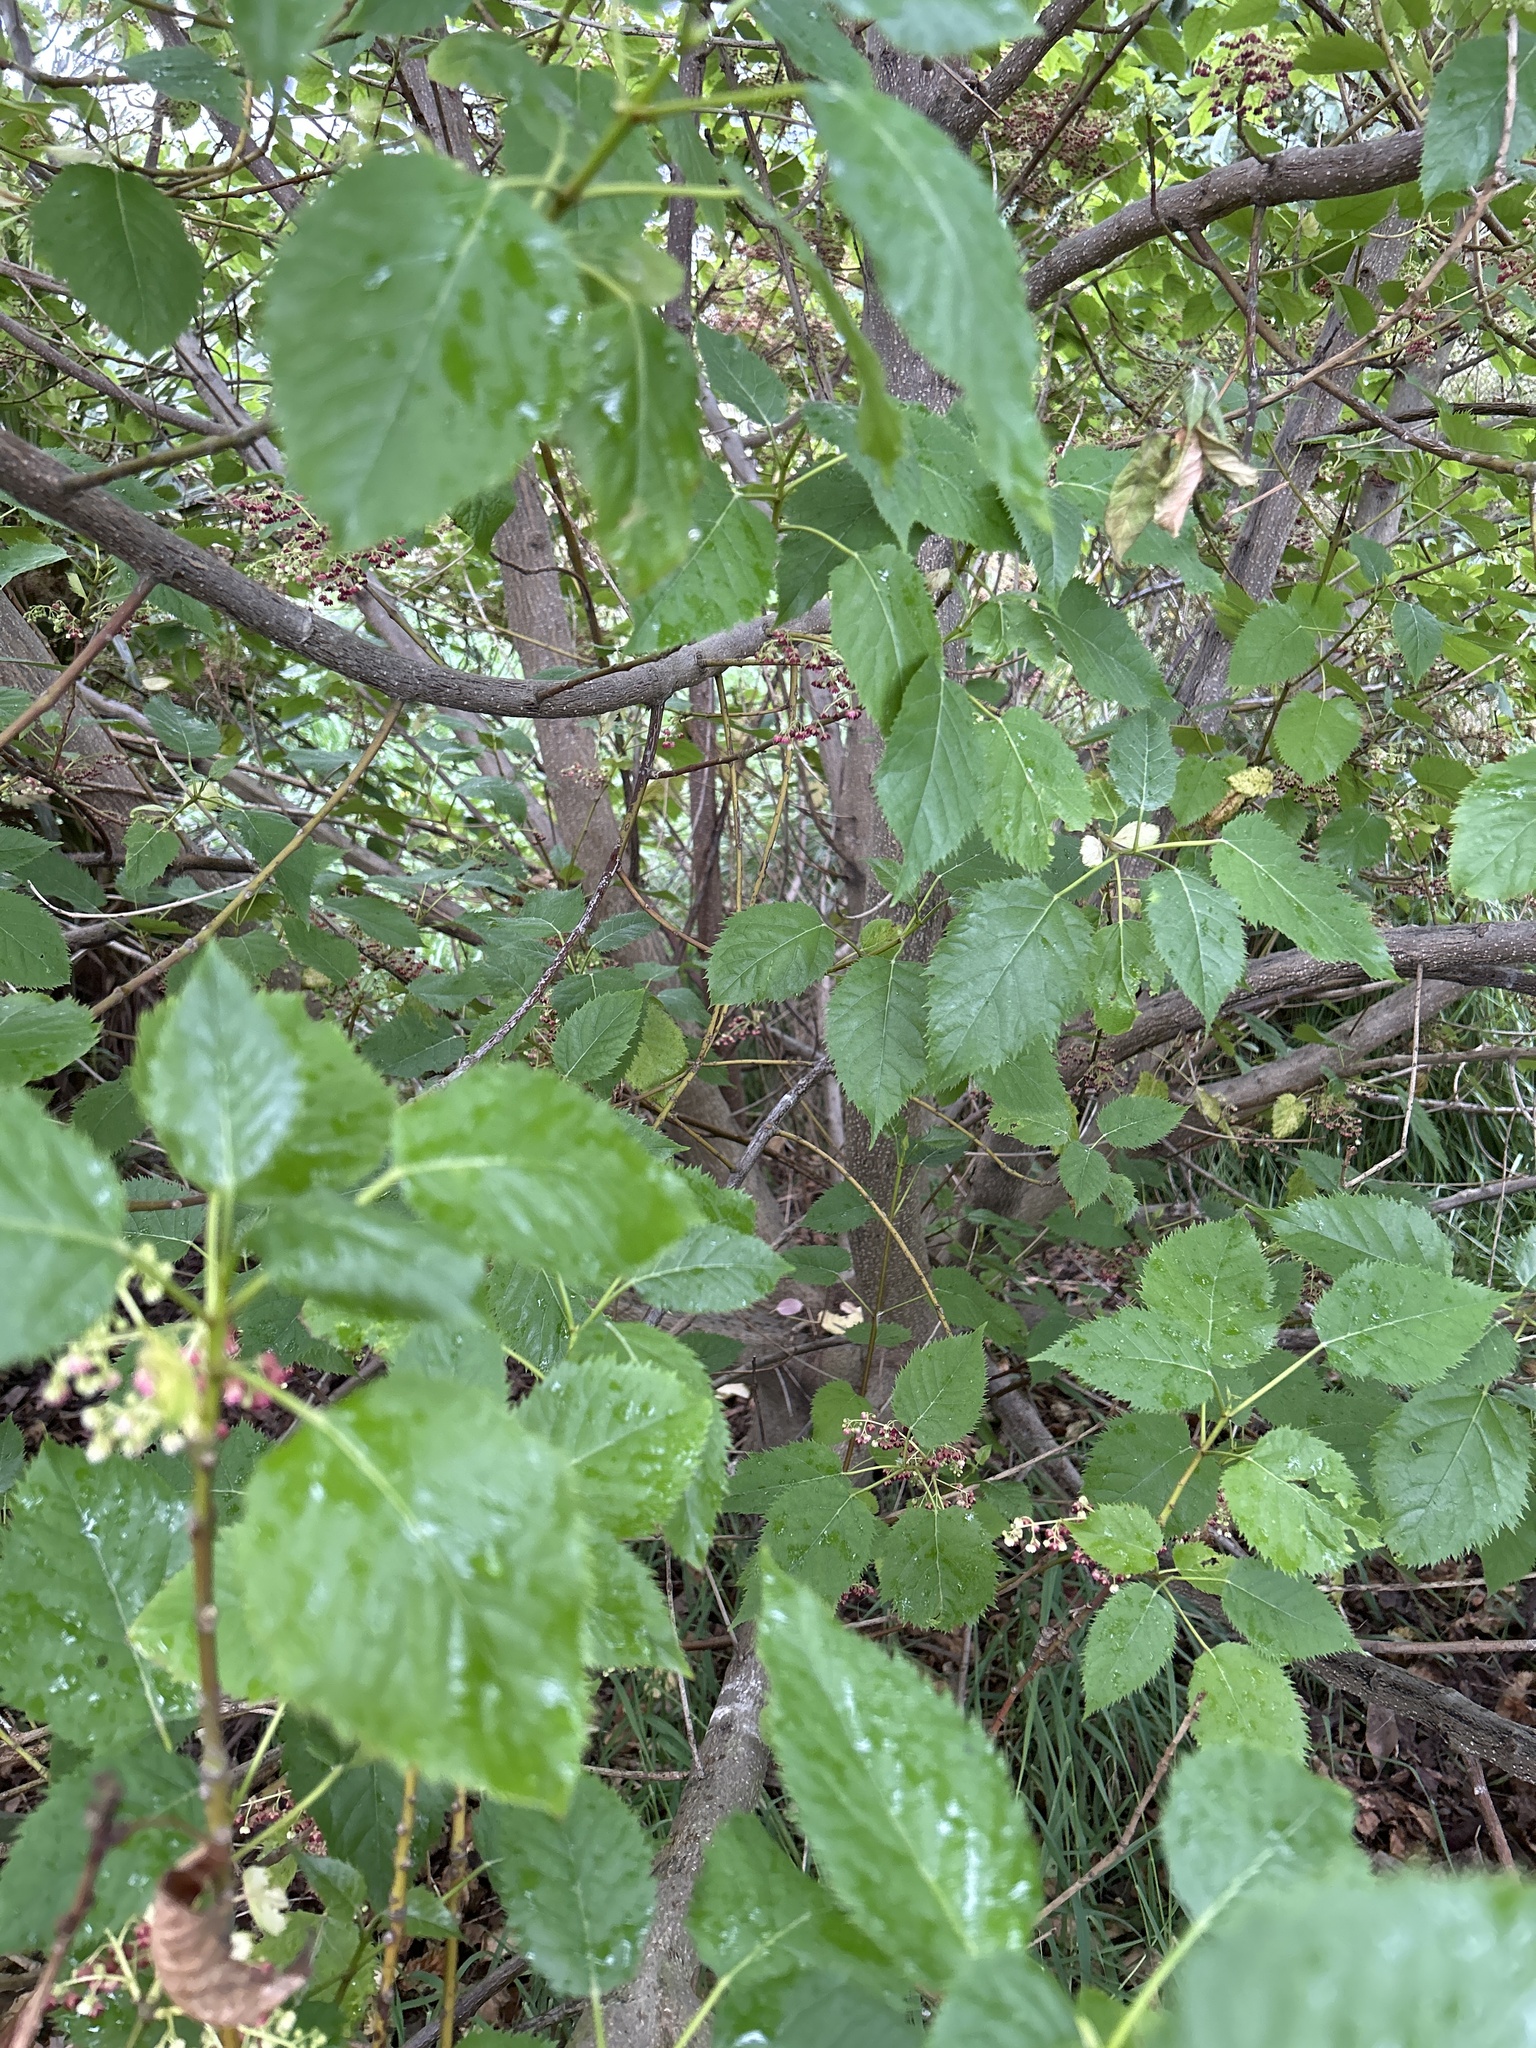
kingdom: Plantae
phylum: Tracheophyta
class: Magnoliopsida
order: Oxalidales
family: Elaeocarpaceae
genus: Aristotelia
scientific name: Aristotelia serrata
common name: New zealand wineberry
